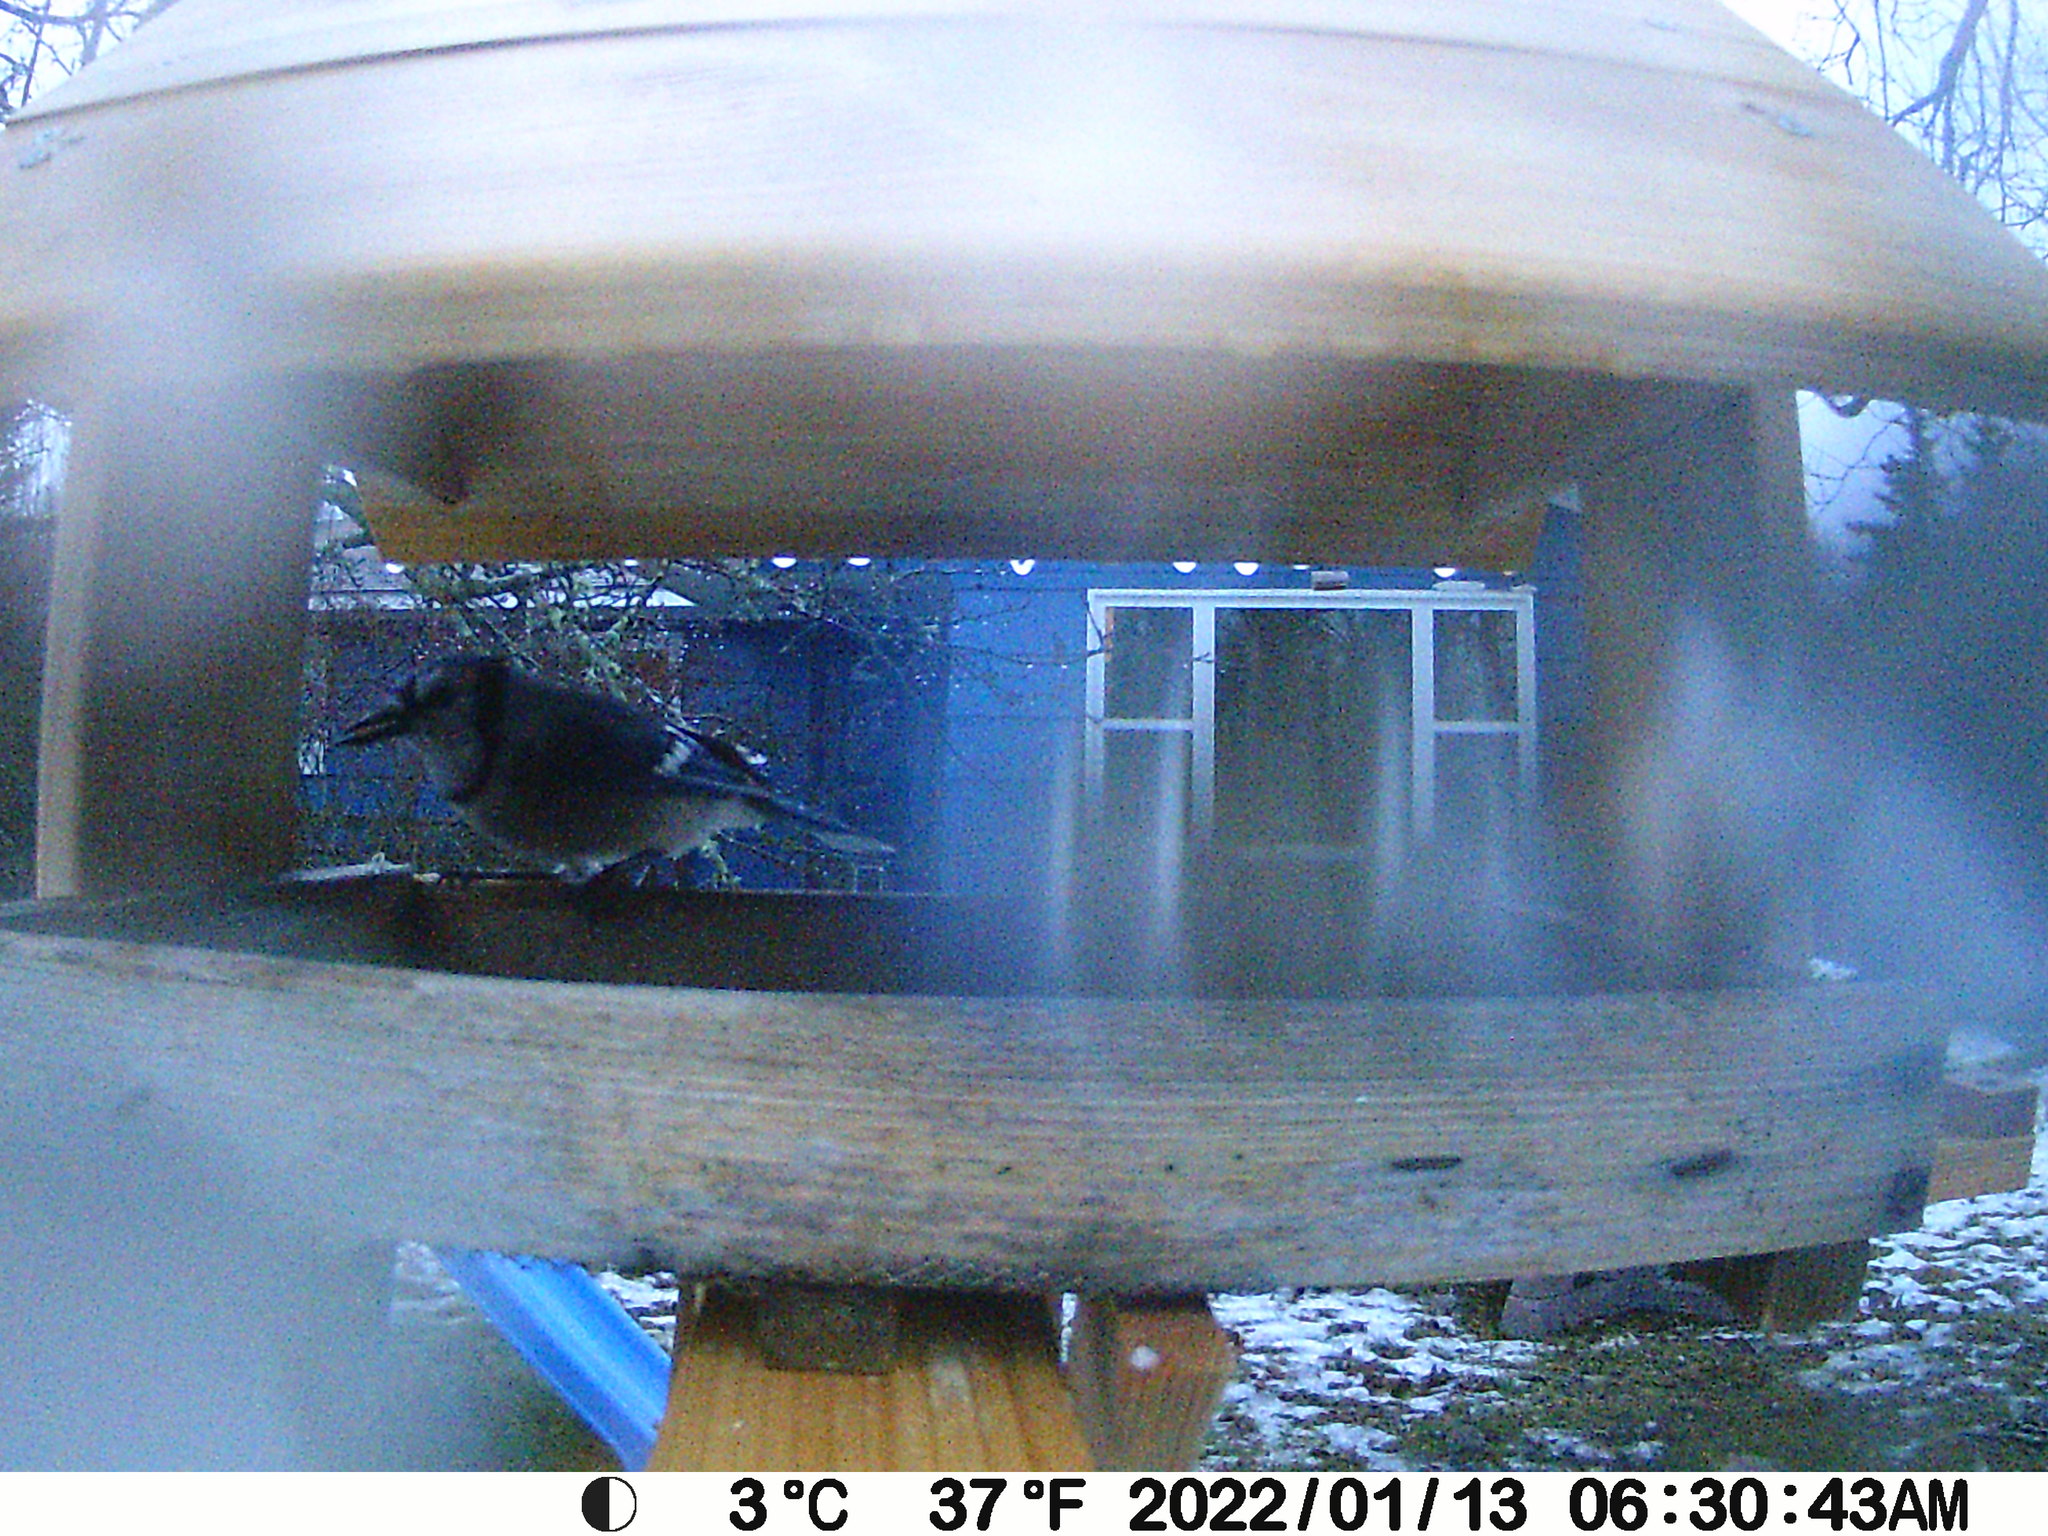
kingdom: Animalia
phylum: Chordata
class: Aves
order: Passeriformes
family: Corvidae
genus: Cyanocitta
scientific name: Cyanocitta cristata
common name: Blue jay
